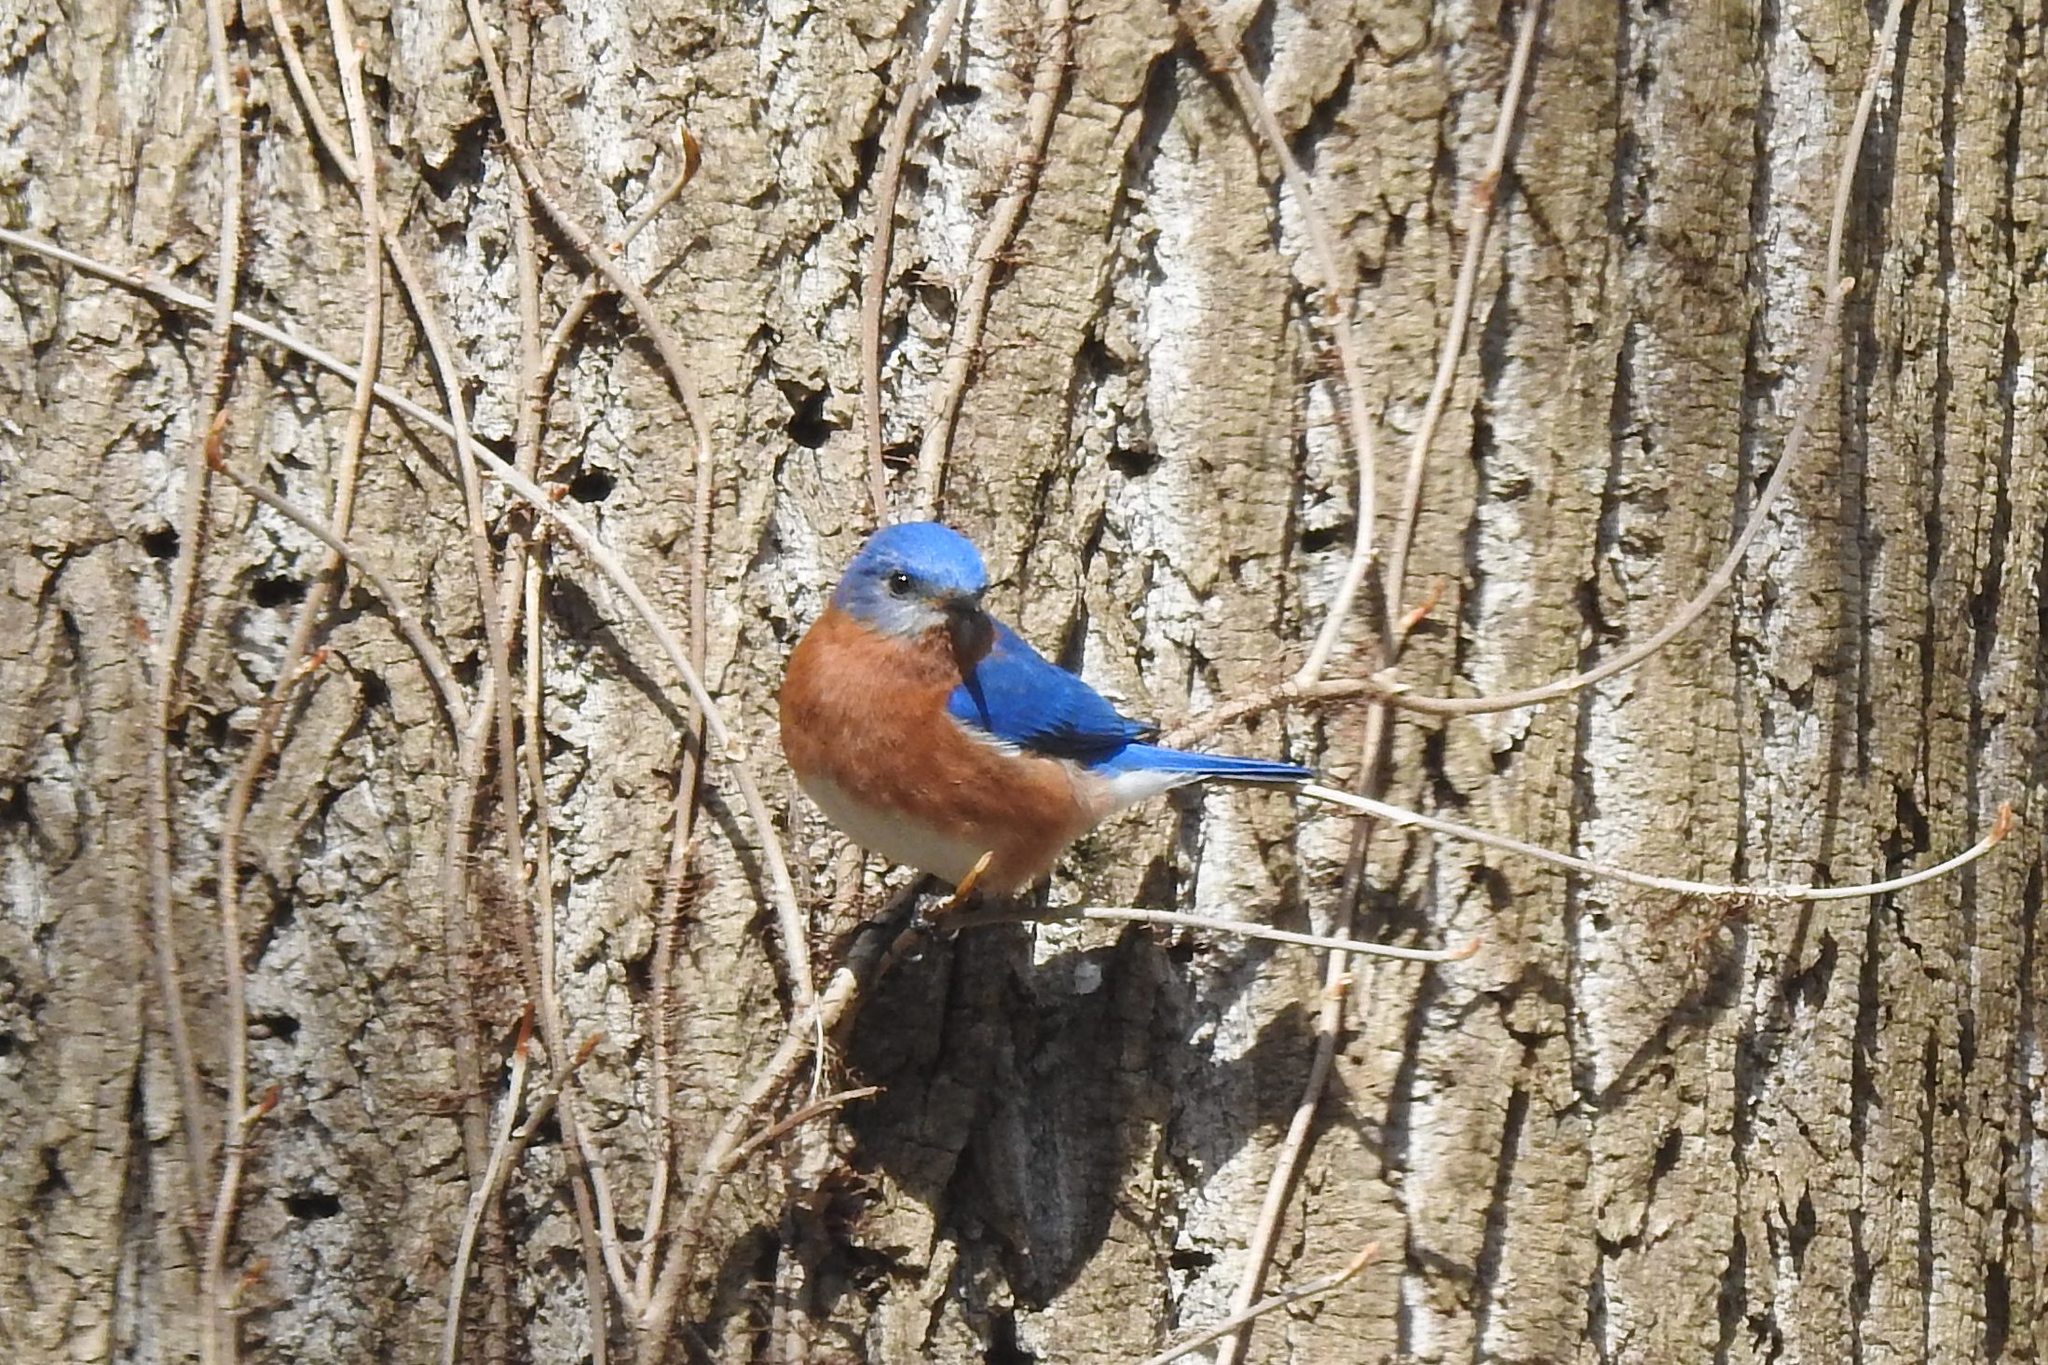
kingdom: Animalia
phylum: Chordata
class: Aves
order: Passeriformes
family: Turdidae
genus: Sialia
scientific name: Sialia sialis
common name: Eastern bluebird
